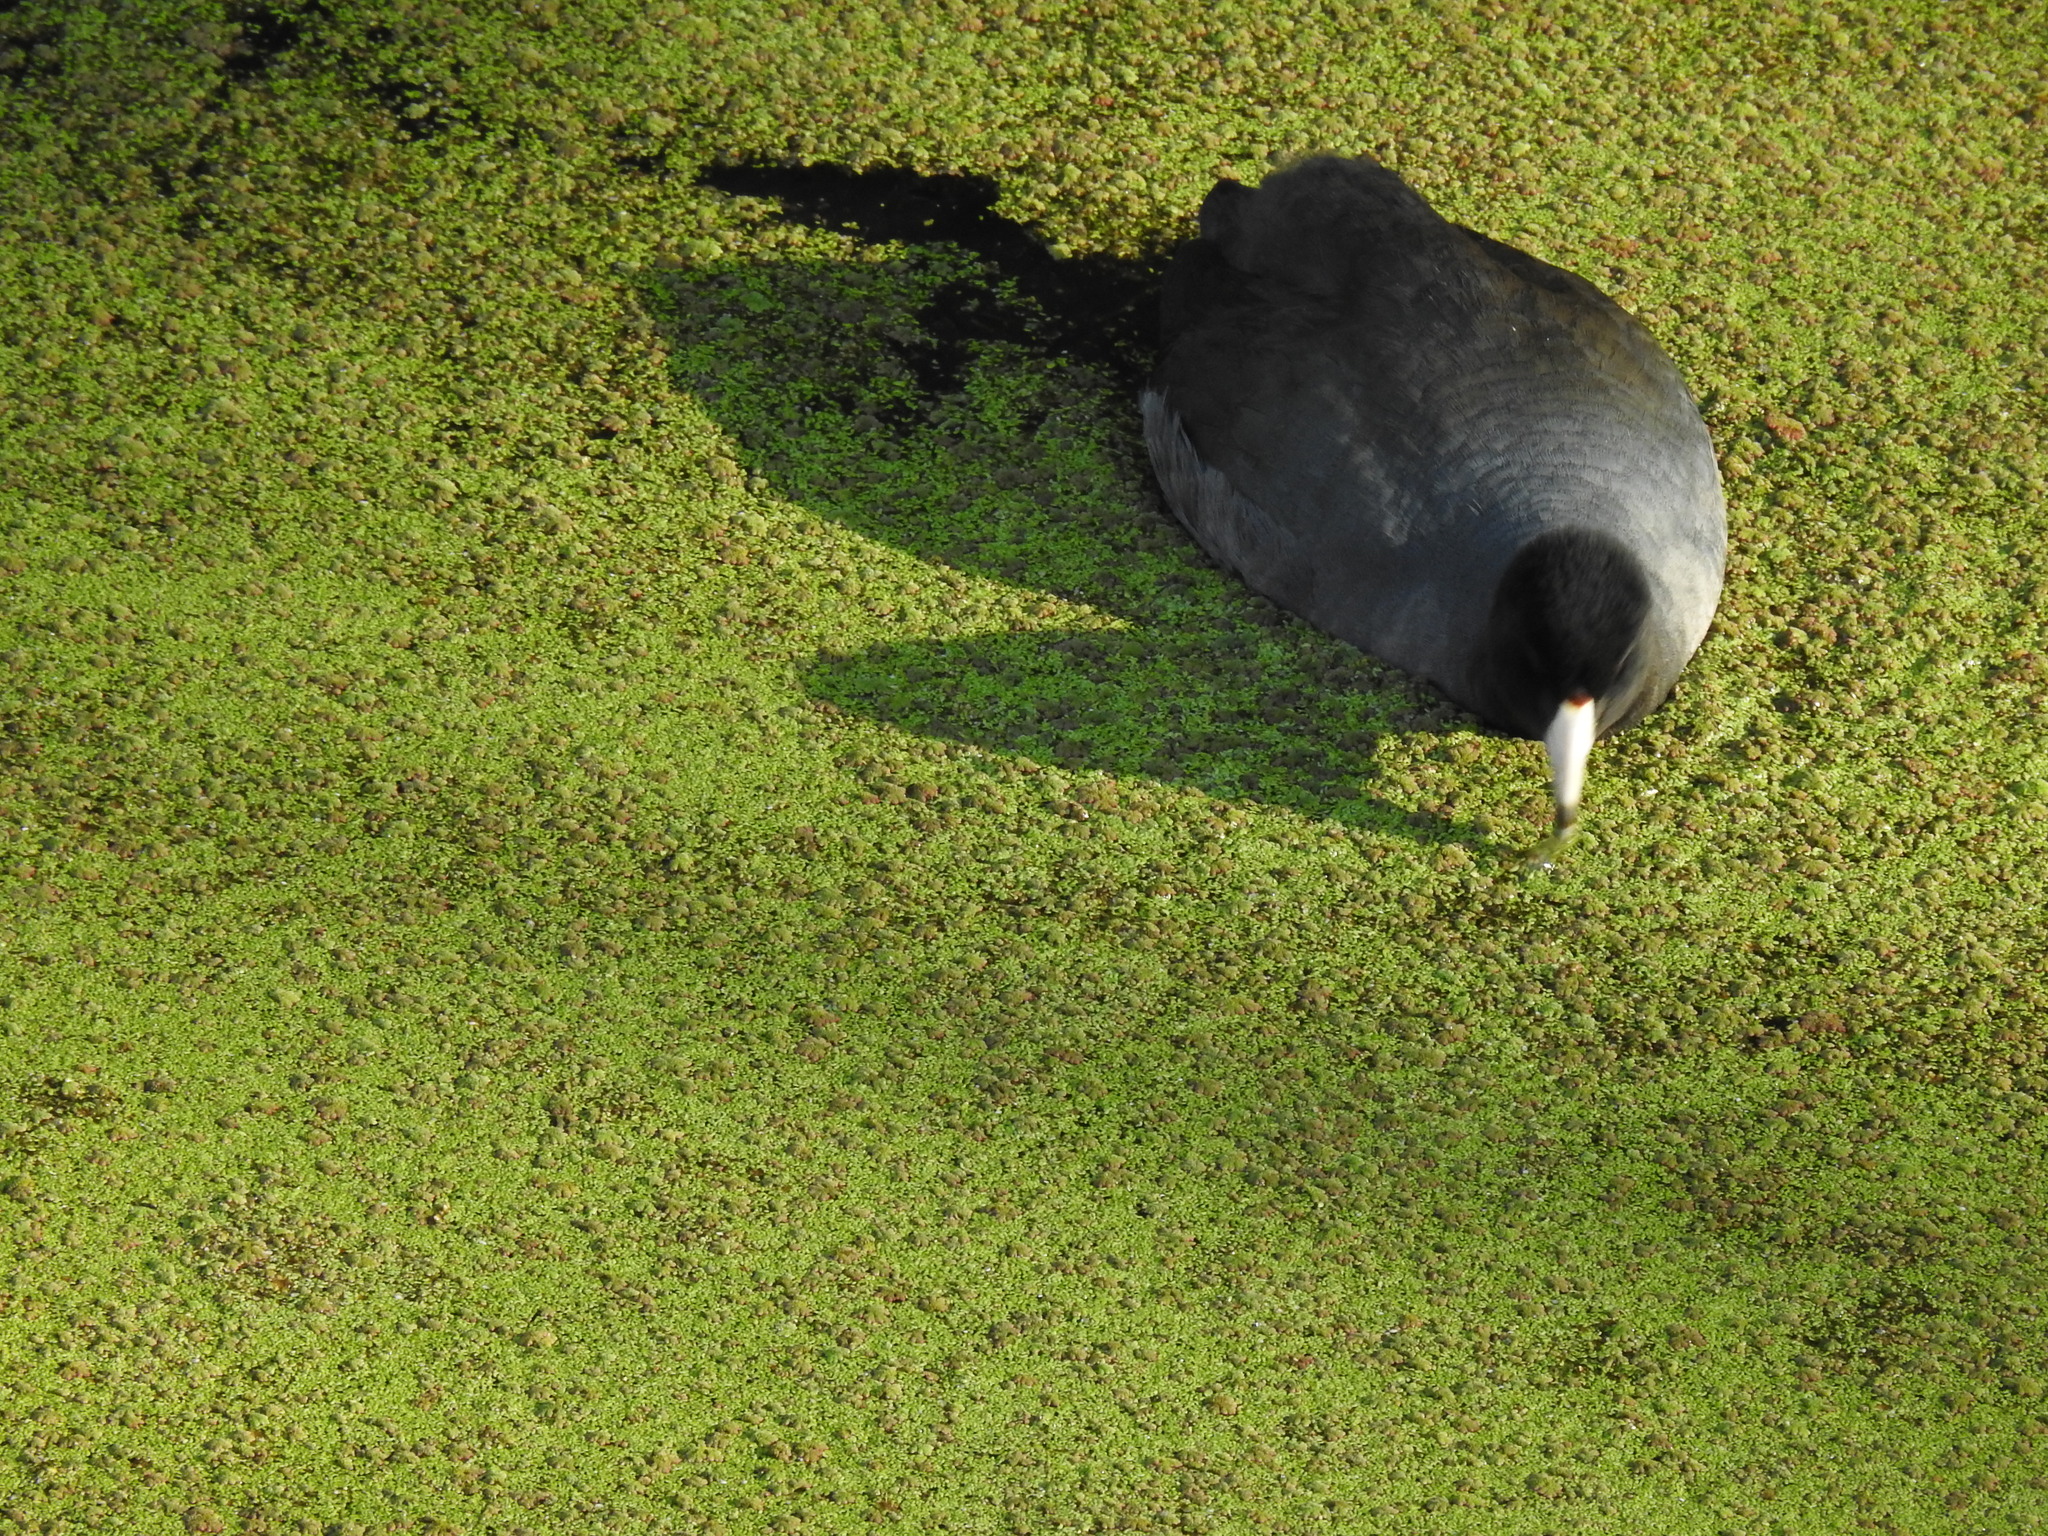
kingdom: Animalia
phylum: Chordata
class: Aves
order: Gruiformes
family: Rallidae
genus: Fulica
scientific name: Fulica americana
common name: American coot
